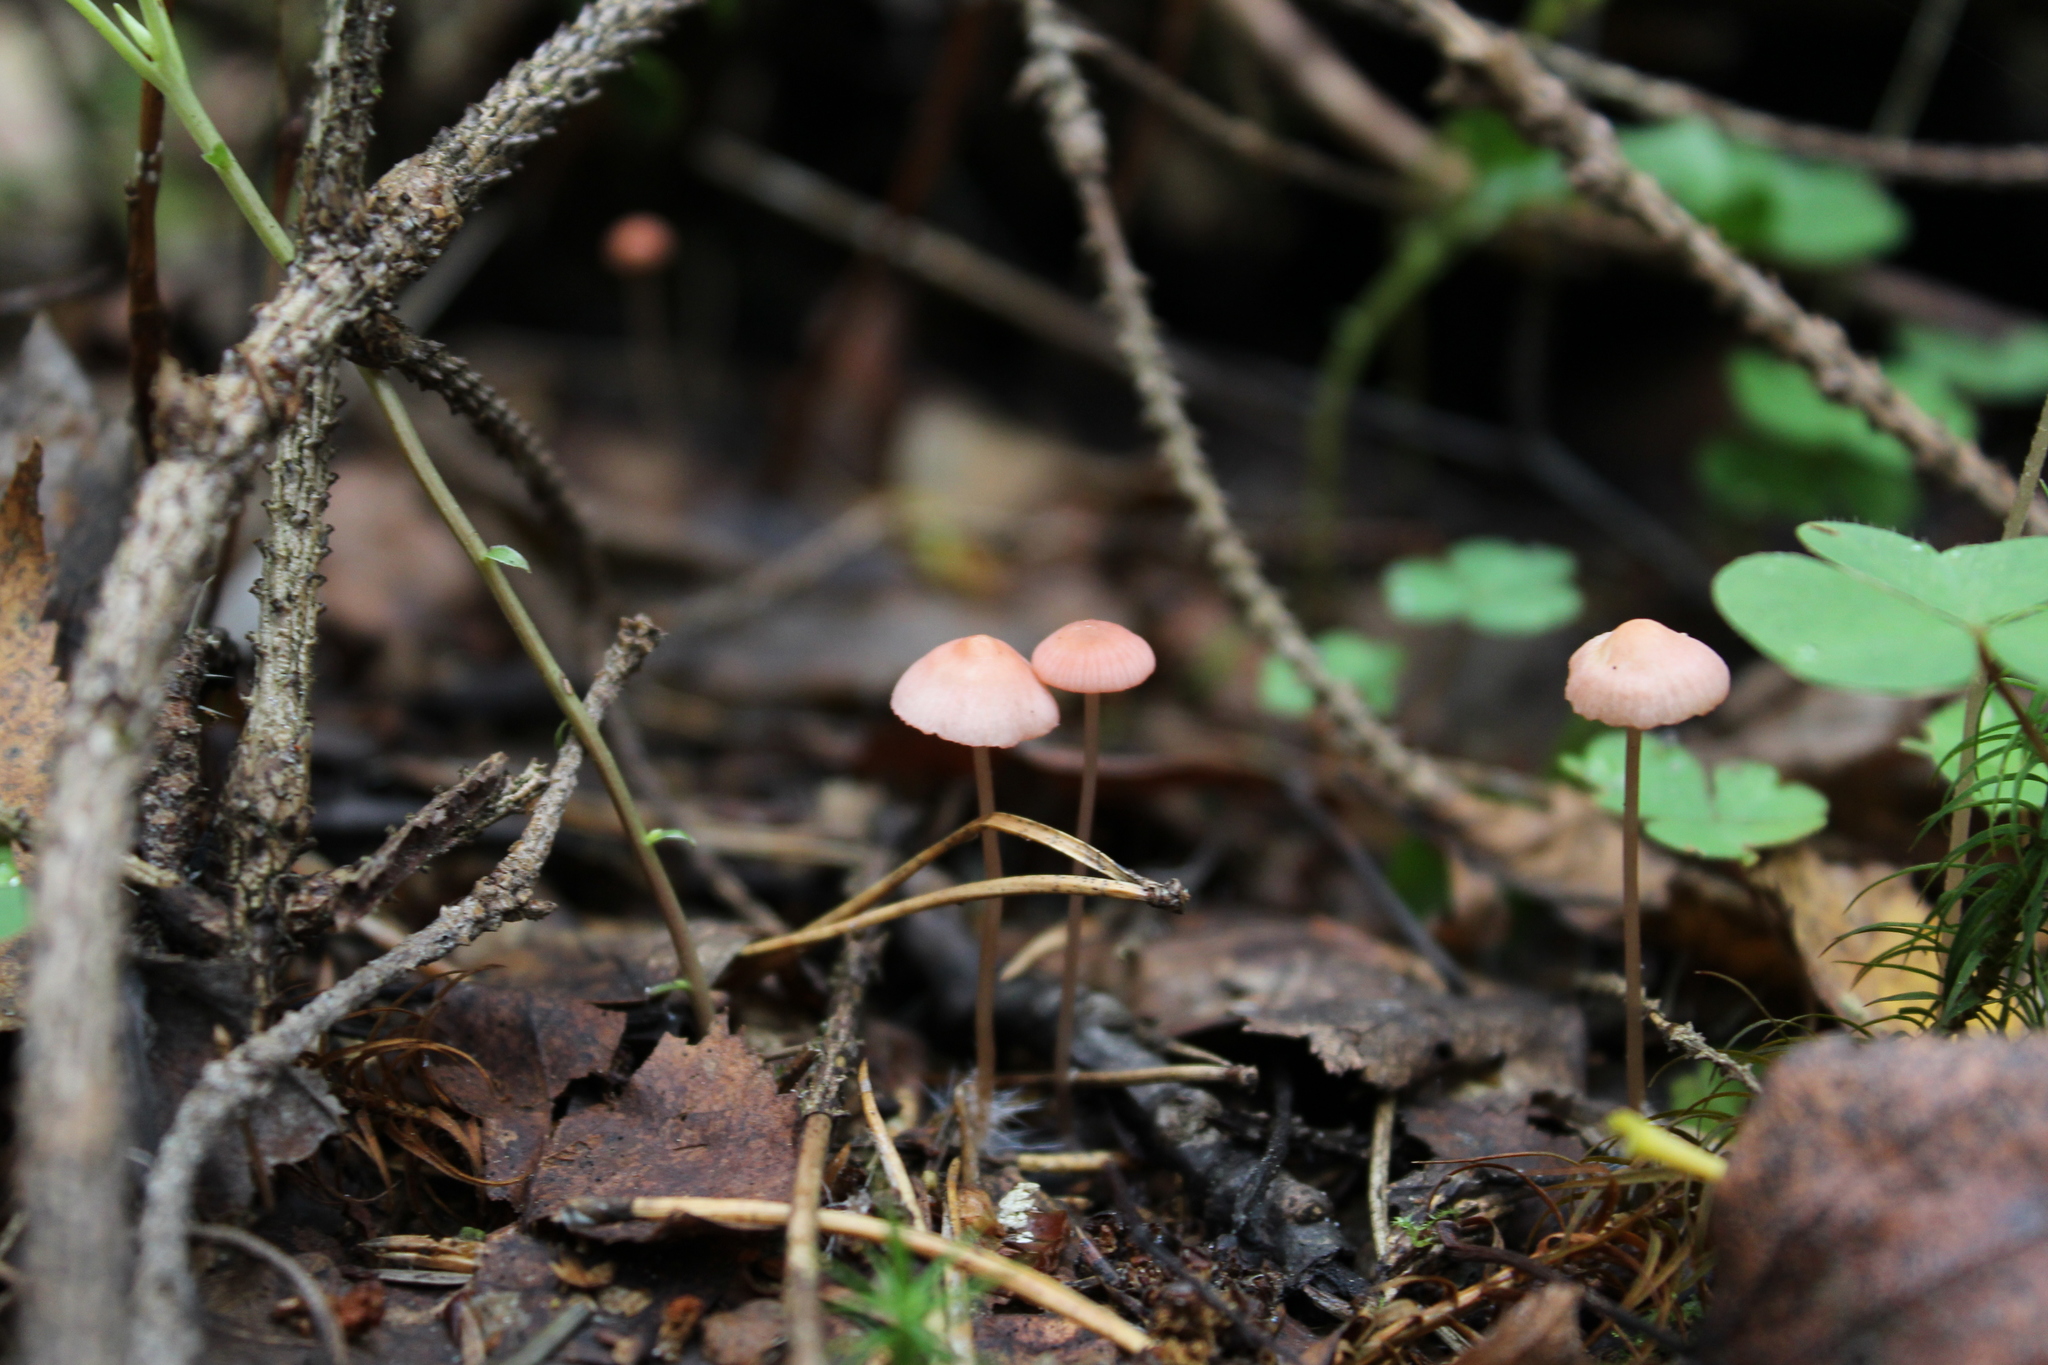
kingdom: Fungi
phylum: Basidiomycota
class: Agaricomycetes
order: Agaricales
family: Mycenaceae
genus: Mycena
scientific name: Mycena rosella
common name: Pink bonnet
